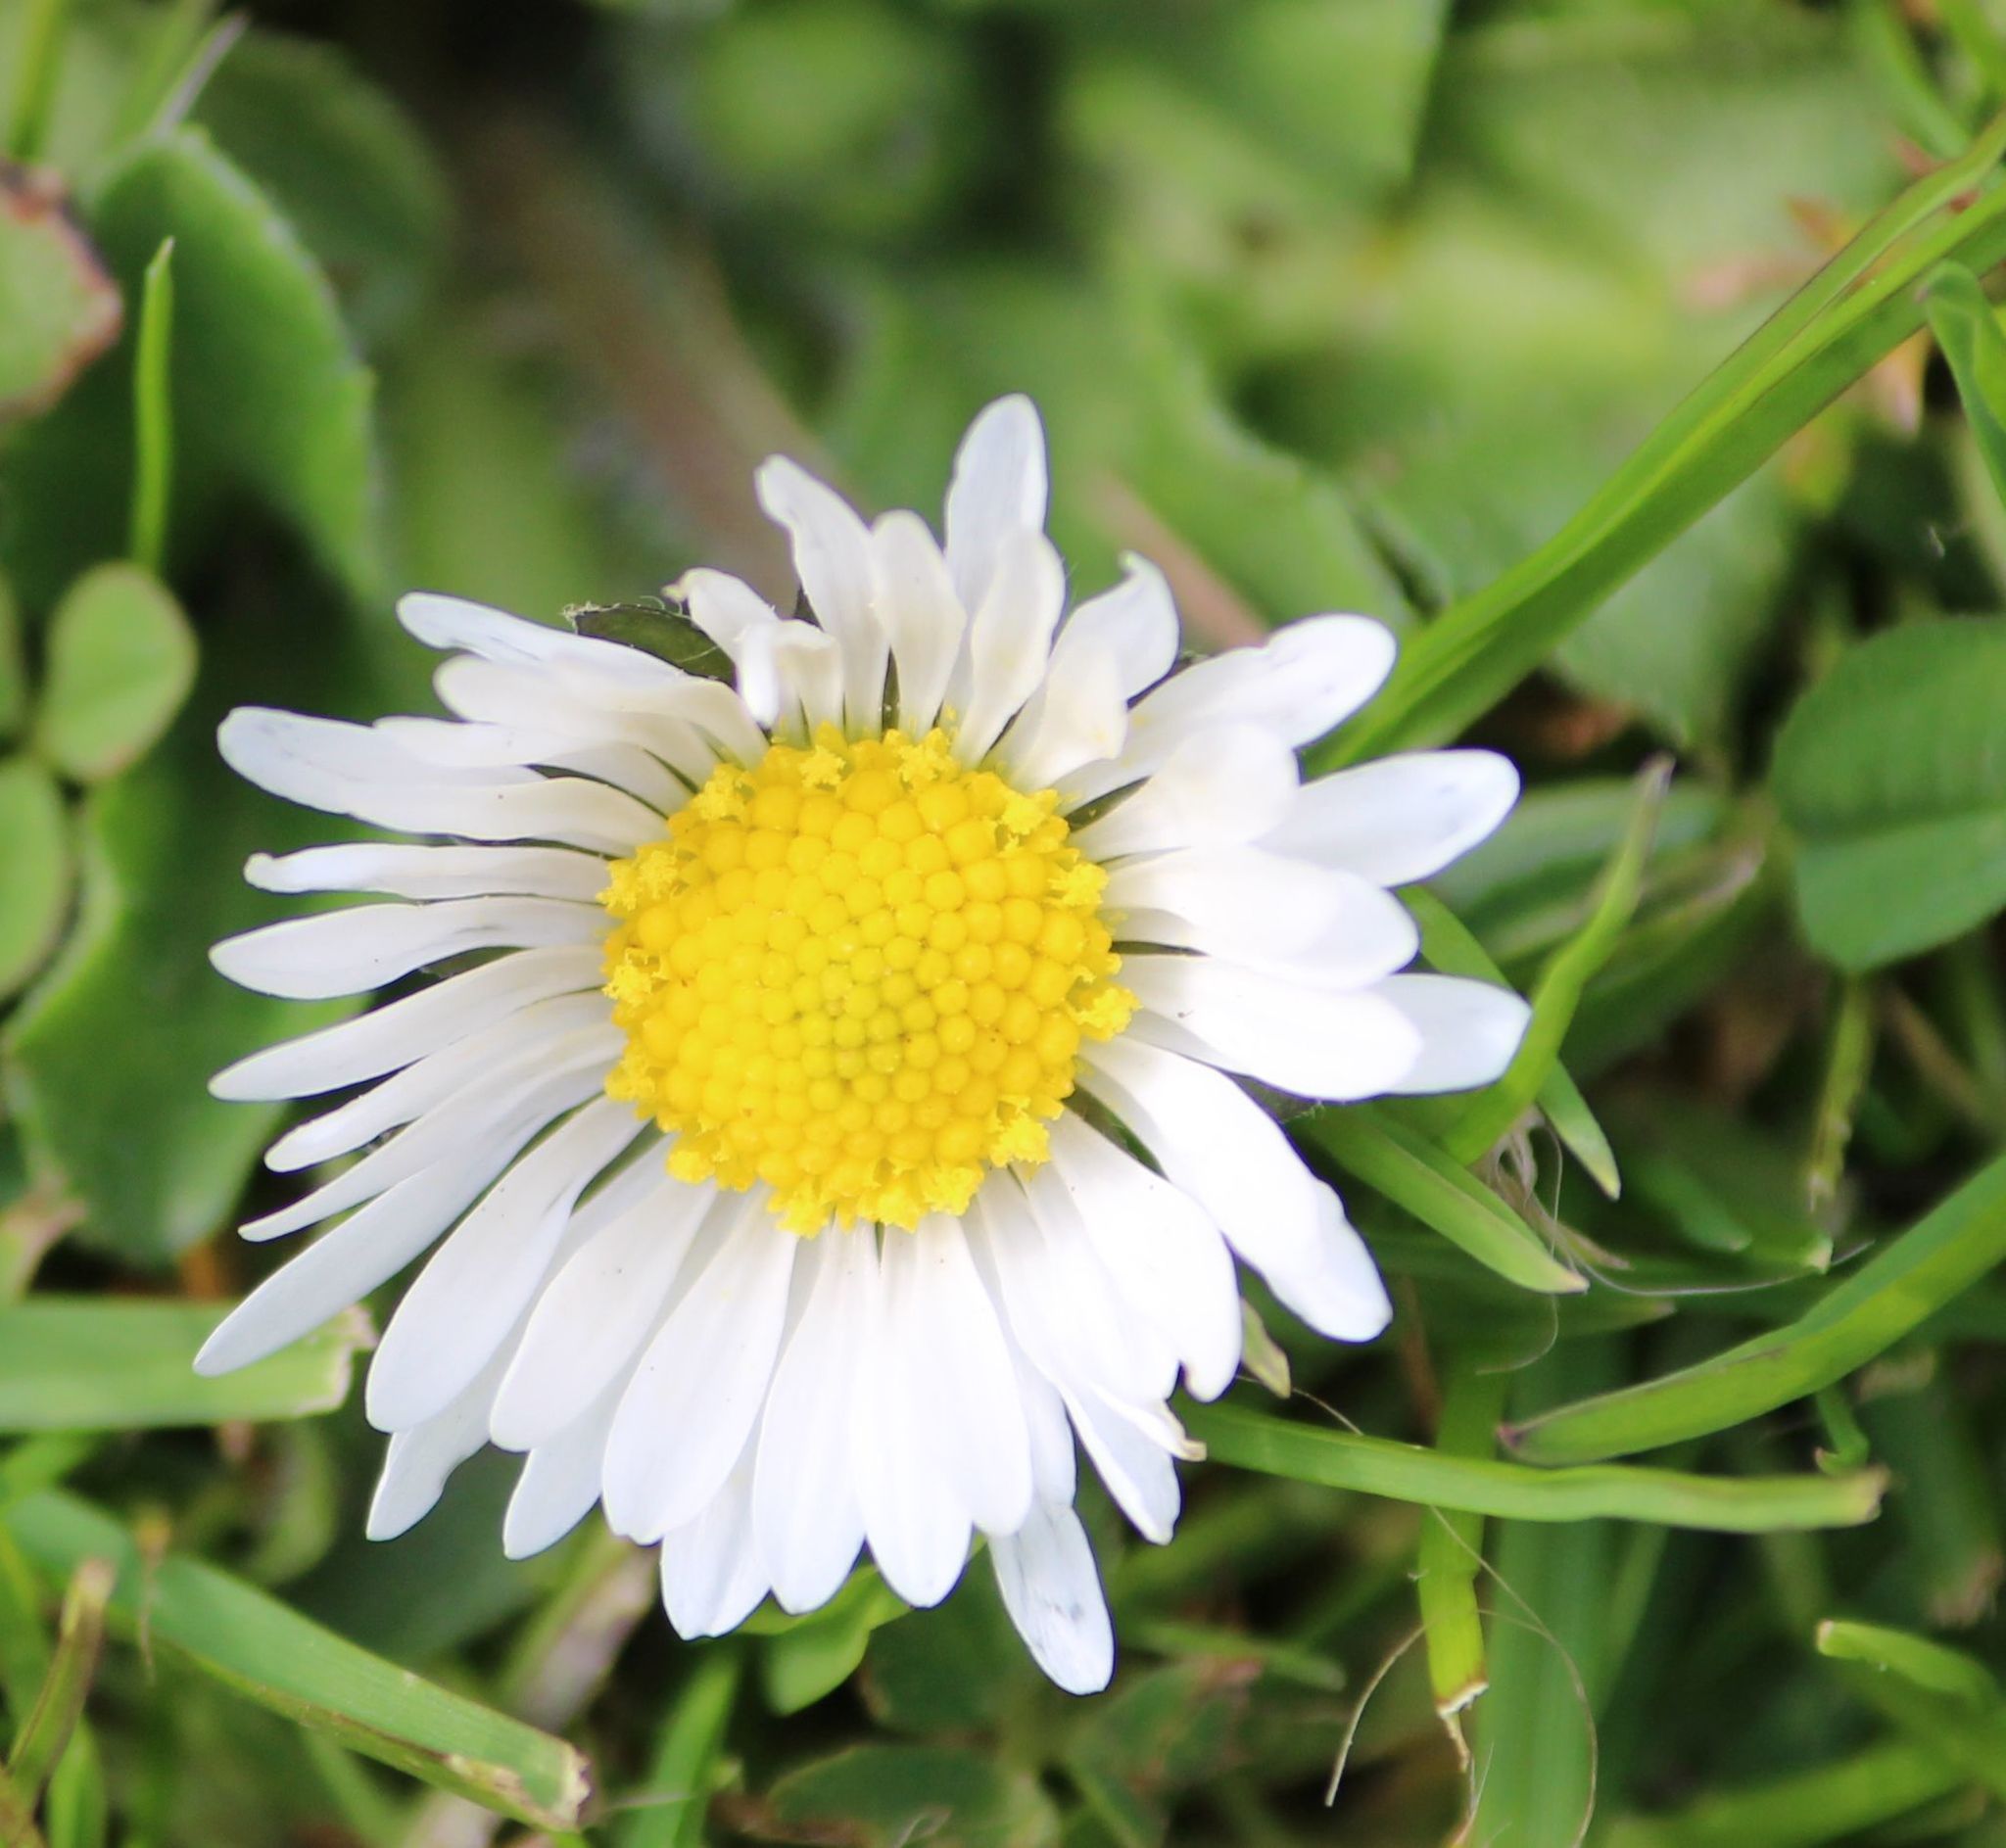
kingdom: Plantae
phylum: Tracheophyta
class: Magnoliopsida
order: Asterales
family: Asteraceae
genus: Bellis
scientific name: Bellis perennis
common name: Lawndaisy
